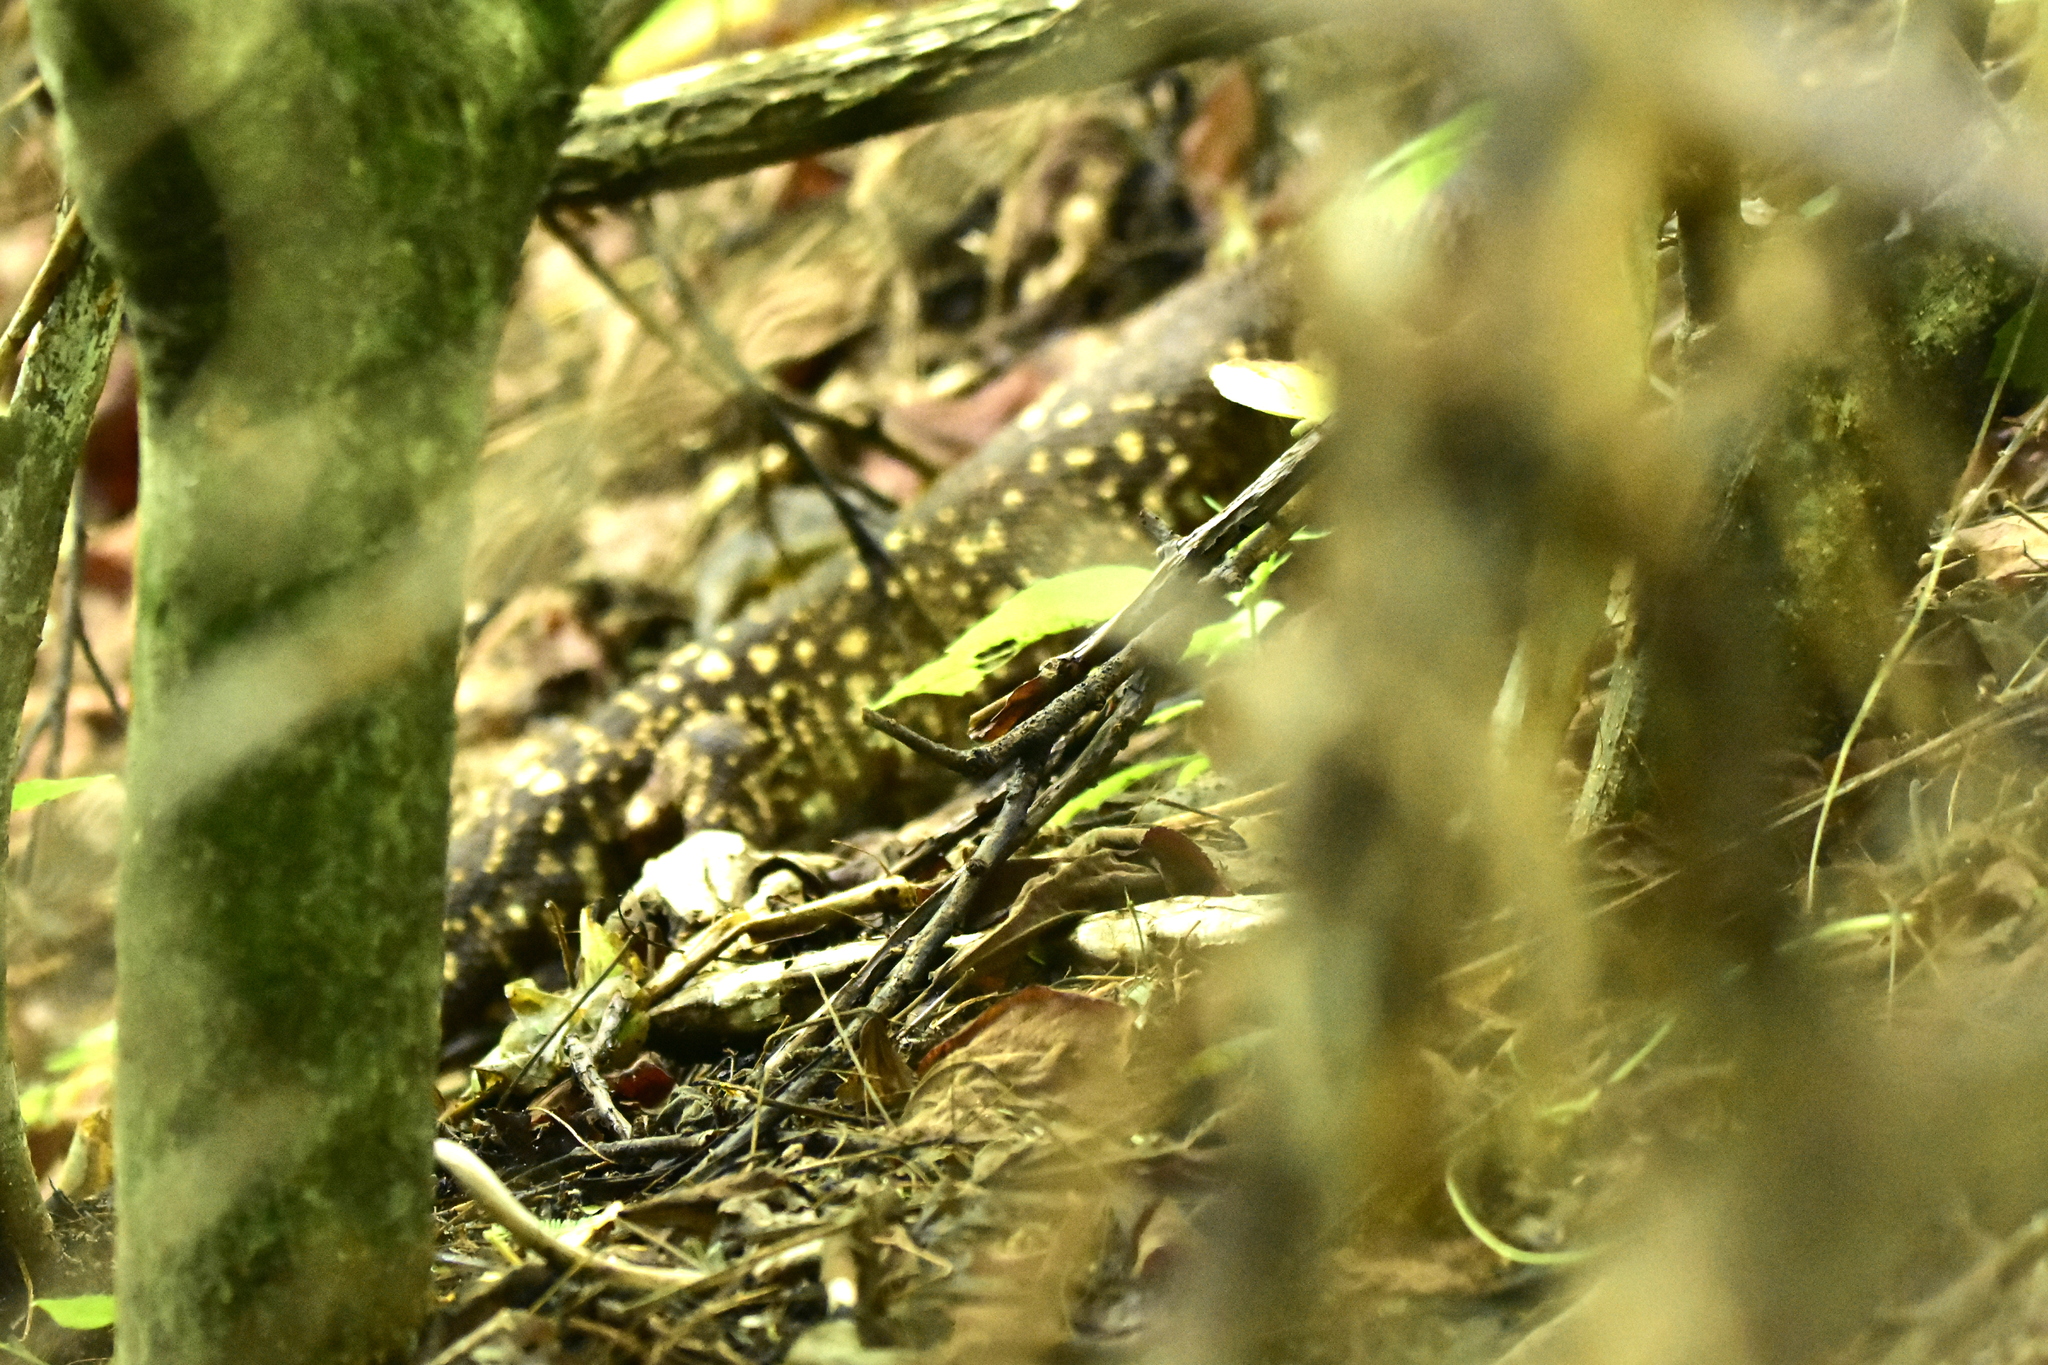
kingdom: Animalia
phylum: Chordata
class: Squamata
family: Helodermatidae
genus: Heloderma
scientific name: Heloderma horridum
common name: Mexican beaded lizard
